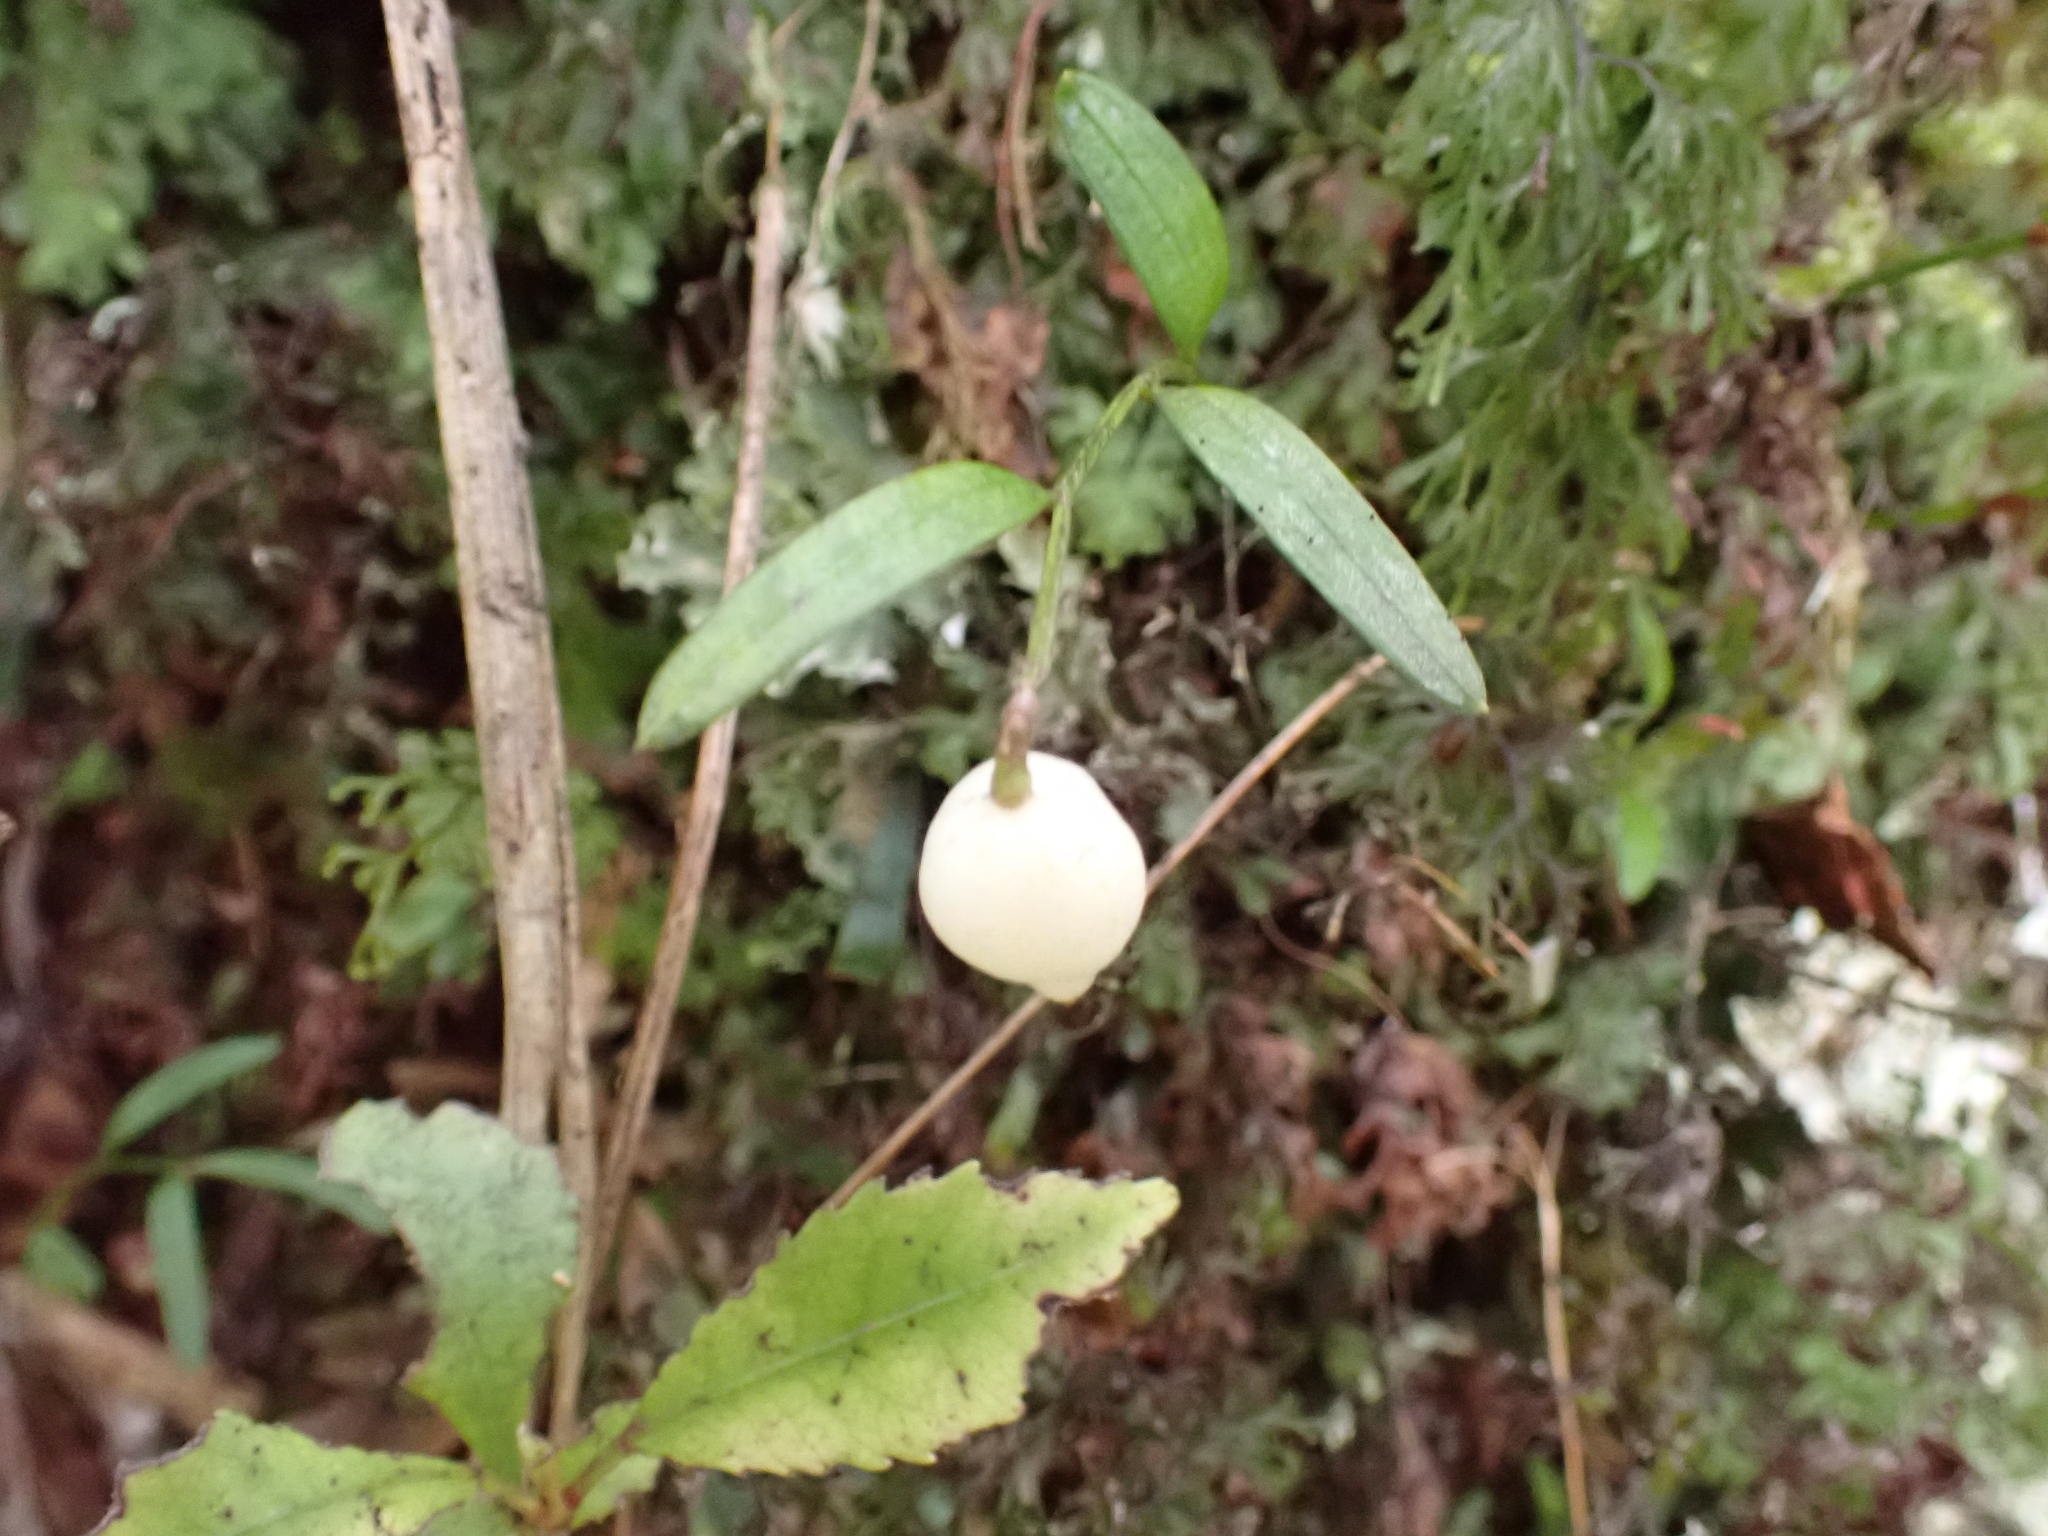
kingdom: Plantae
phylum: Tracheophyta
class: Liliopsida
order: Liliales
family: Alstroemeriaceae
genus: Luzuriaga
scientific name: Luzuriaga parviflora
